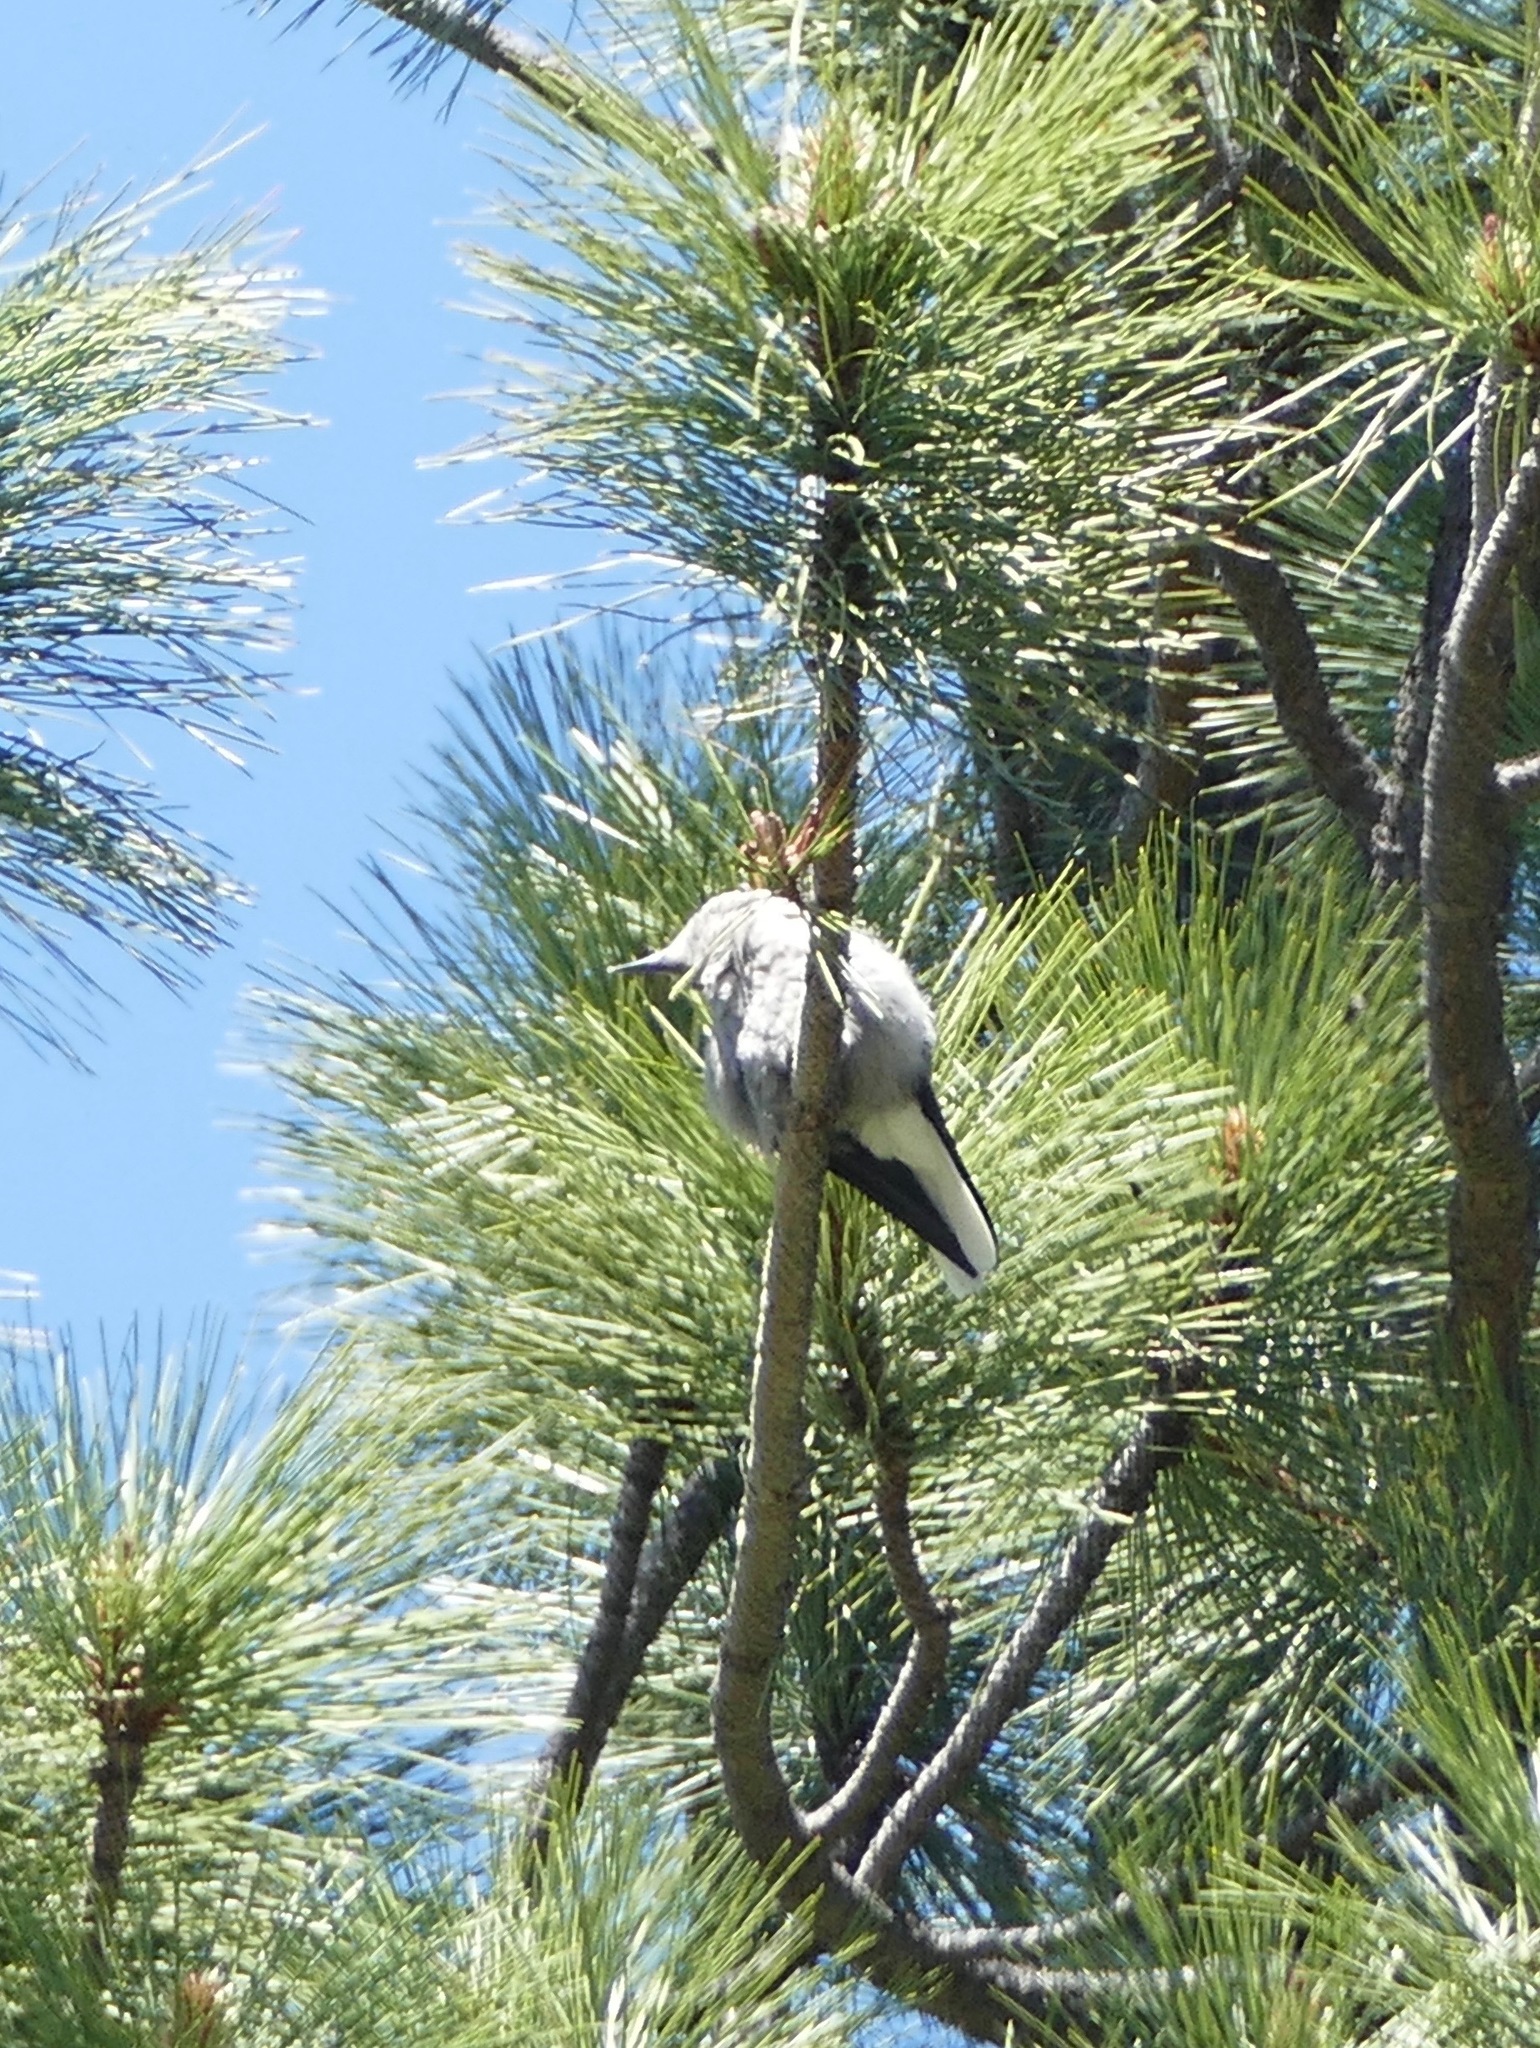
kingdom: Animalia
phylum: Chordata
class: Aves
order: Passeriformes
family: Corvidae
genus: Nucifraga
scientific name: Nucifraga columbiana
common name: Clark's nutcracker
